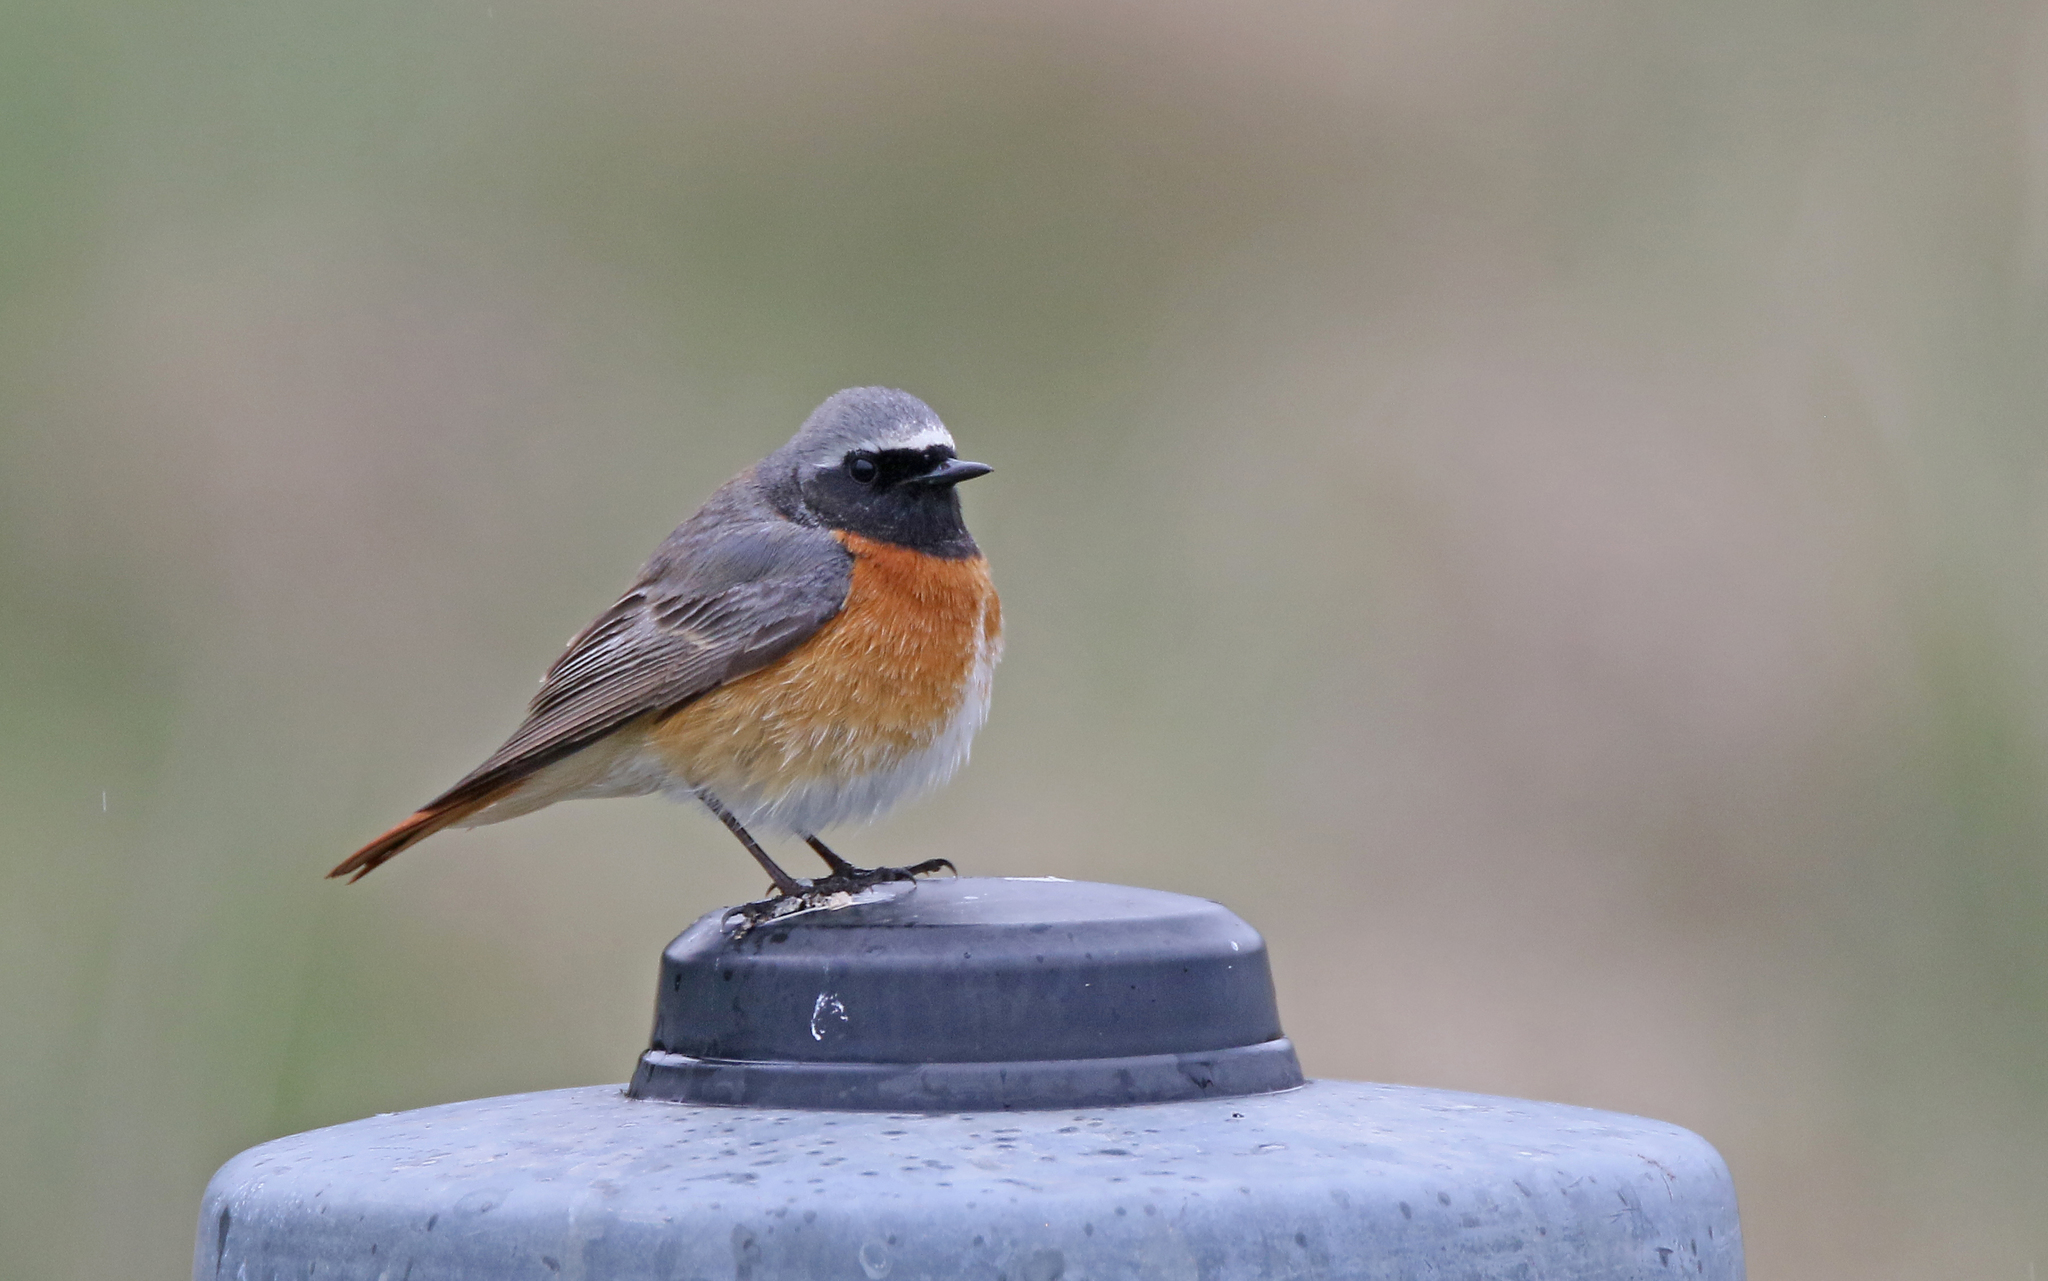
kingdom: Animalia
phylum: Chordata
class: Aves
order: Passeriformes
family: Muscicapidae
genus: Phoenicurus
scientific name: Phoenicurus phoenicurus
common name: Common redstart
